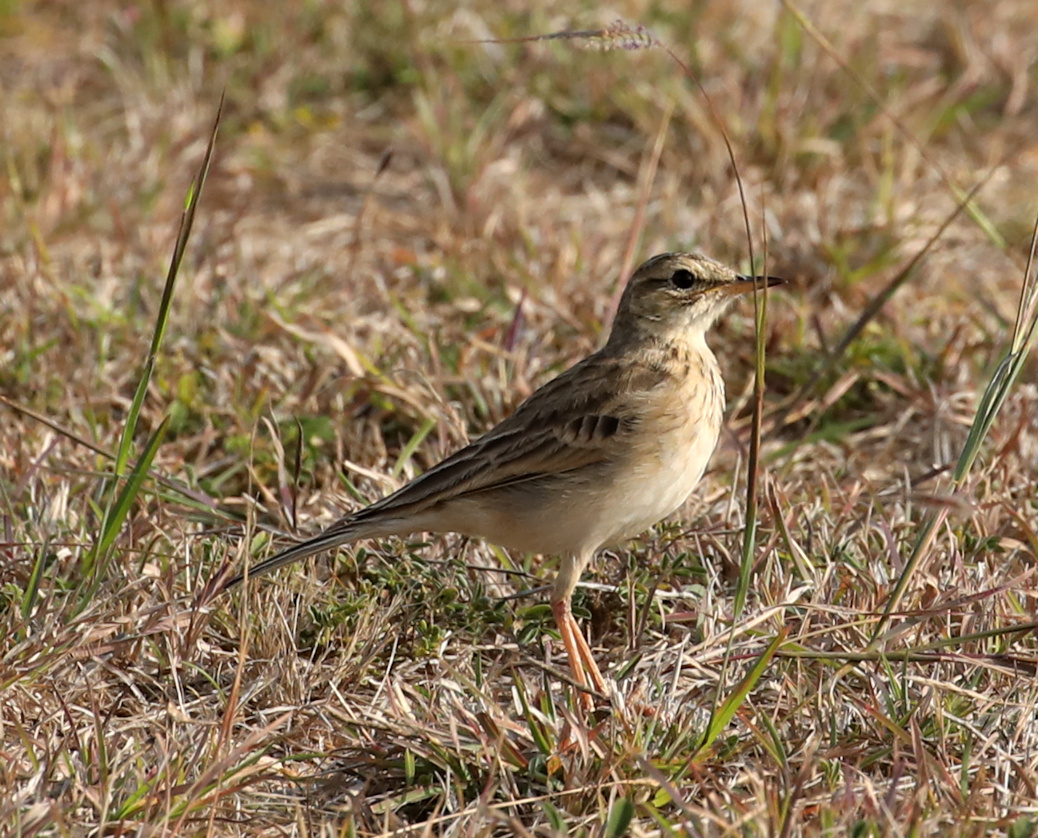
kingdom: Animalia
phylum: Chordata
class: Aves
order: Passeriformes
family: Motacillidae
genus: Anthus
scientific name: Anthus cinnamomeus
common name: African pipit
